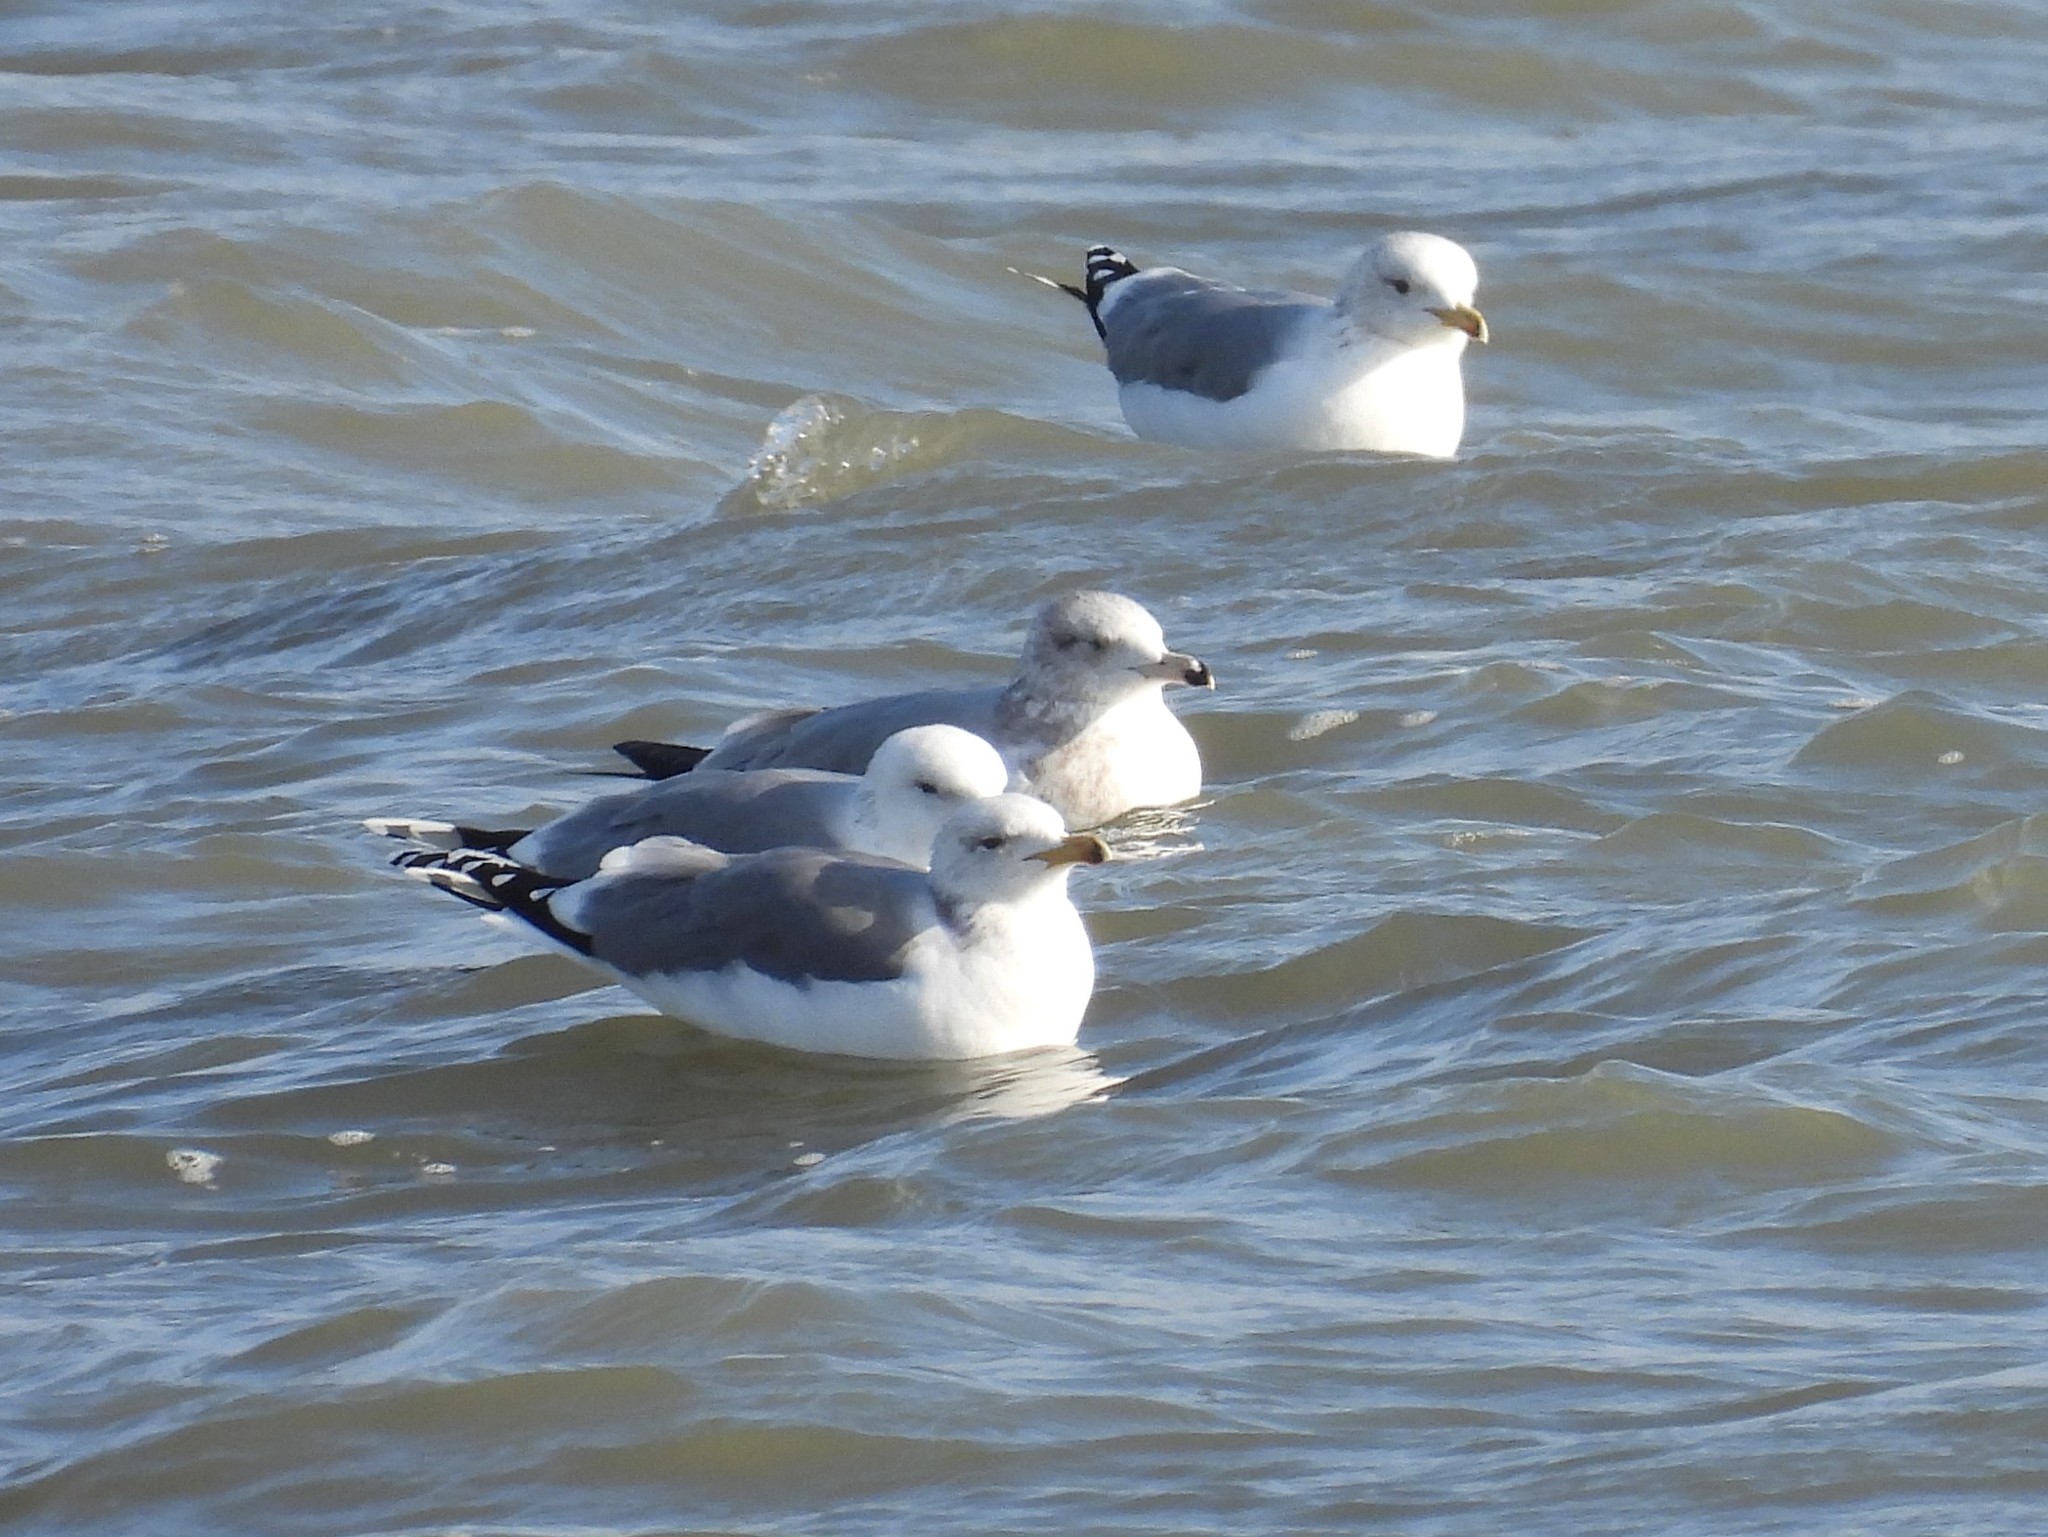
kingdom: Animalia
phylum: Chordata
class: Aves
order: Charadriiformes
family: Laridae
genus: Larus
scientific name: Larus californicus
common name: California gull
